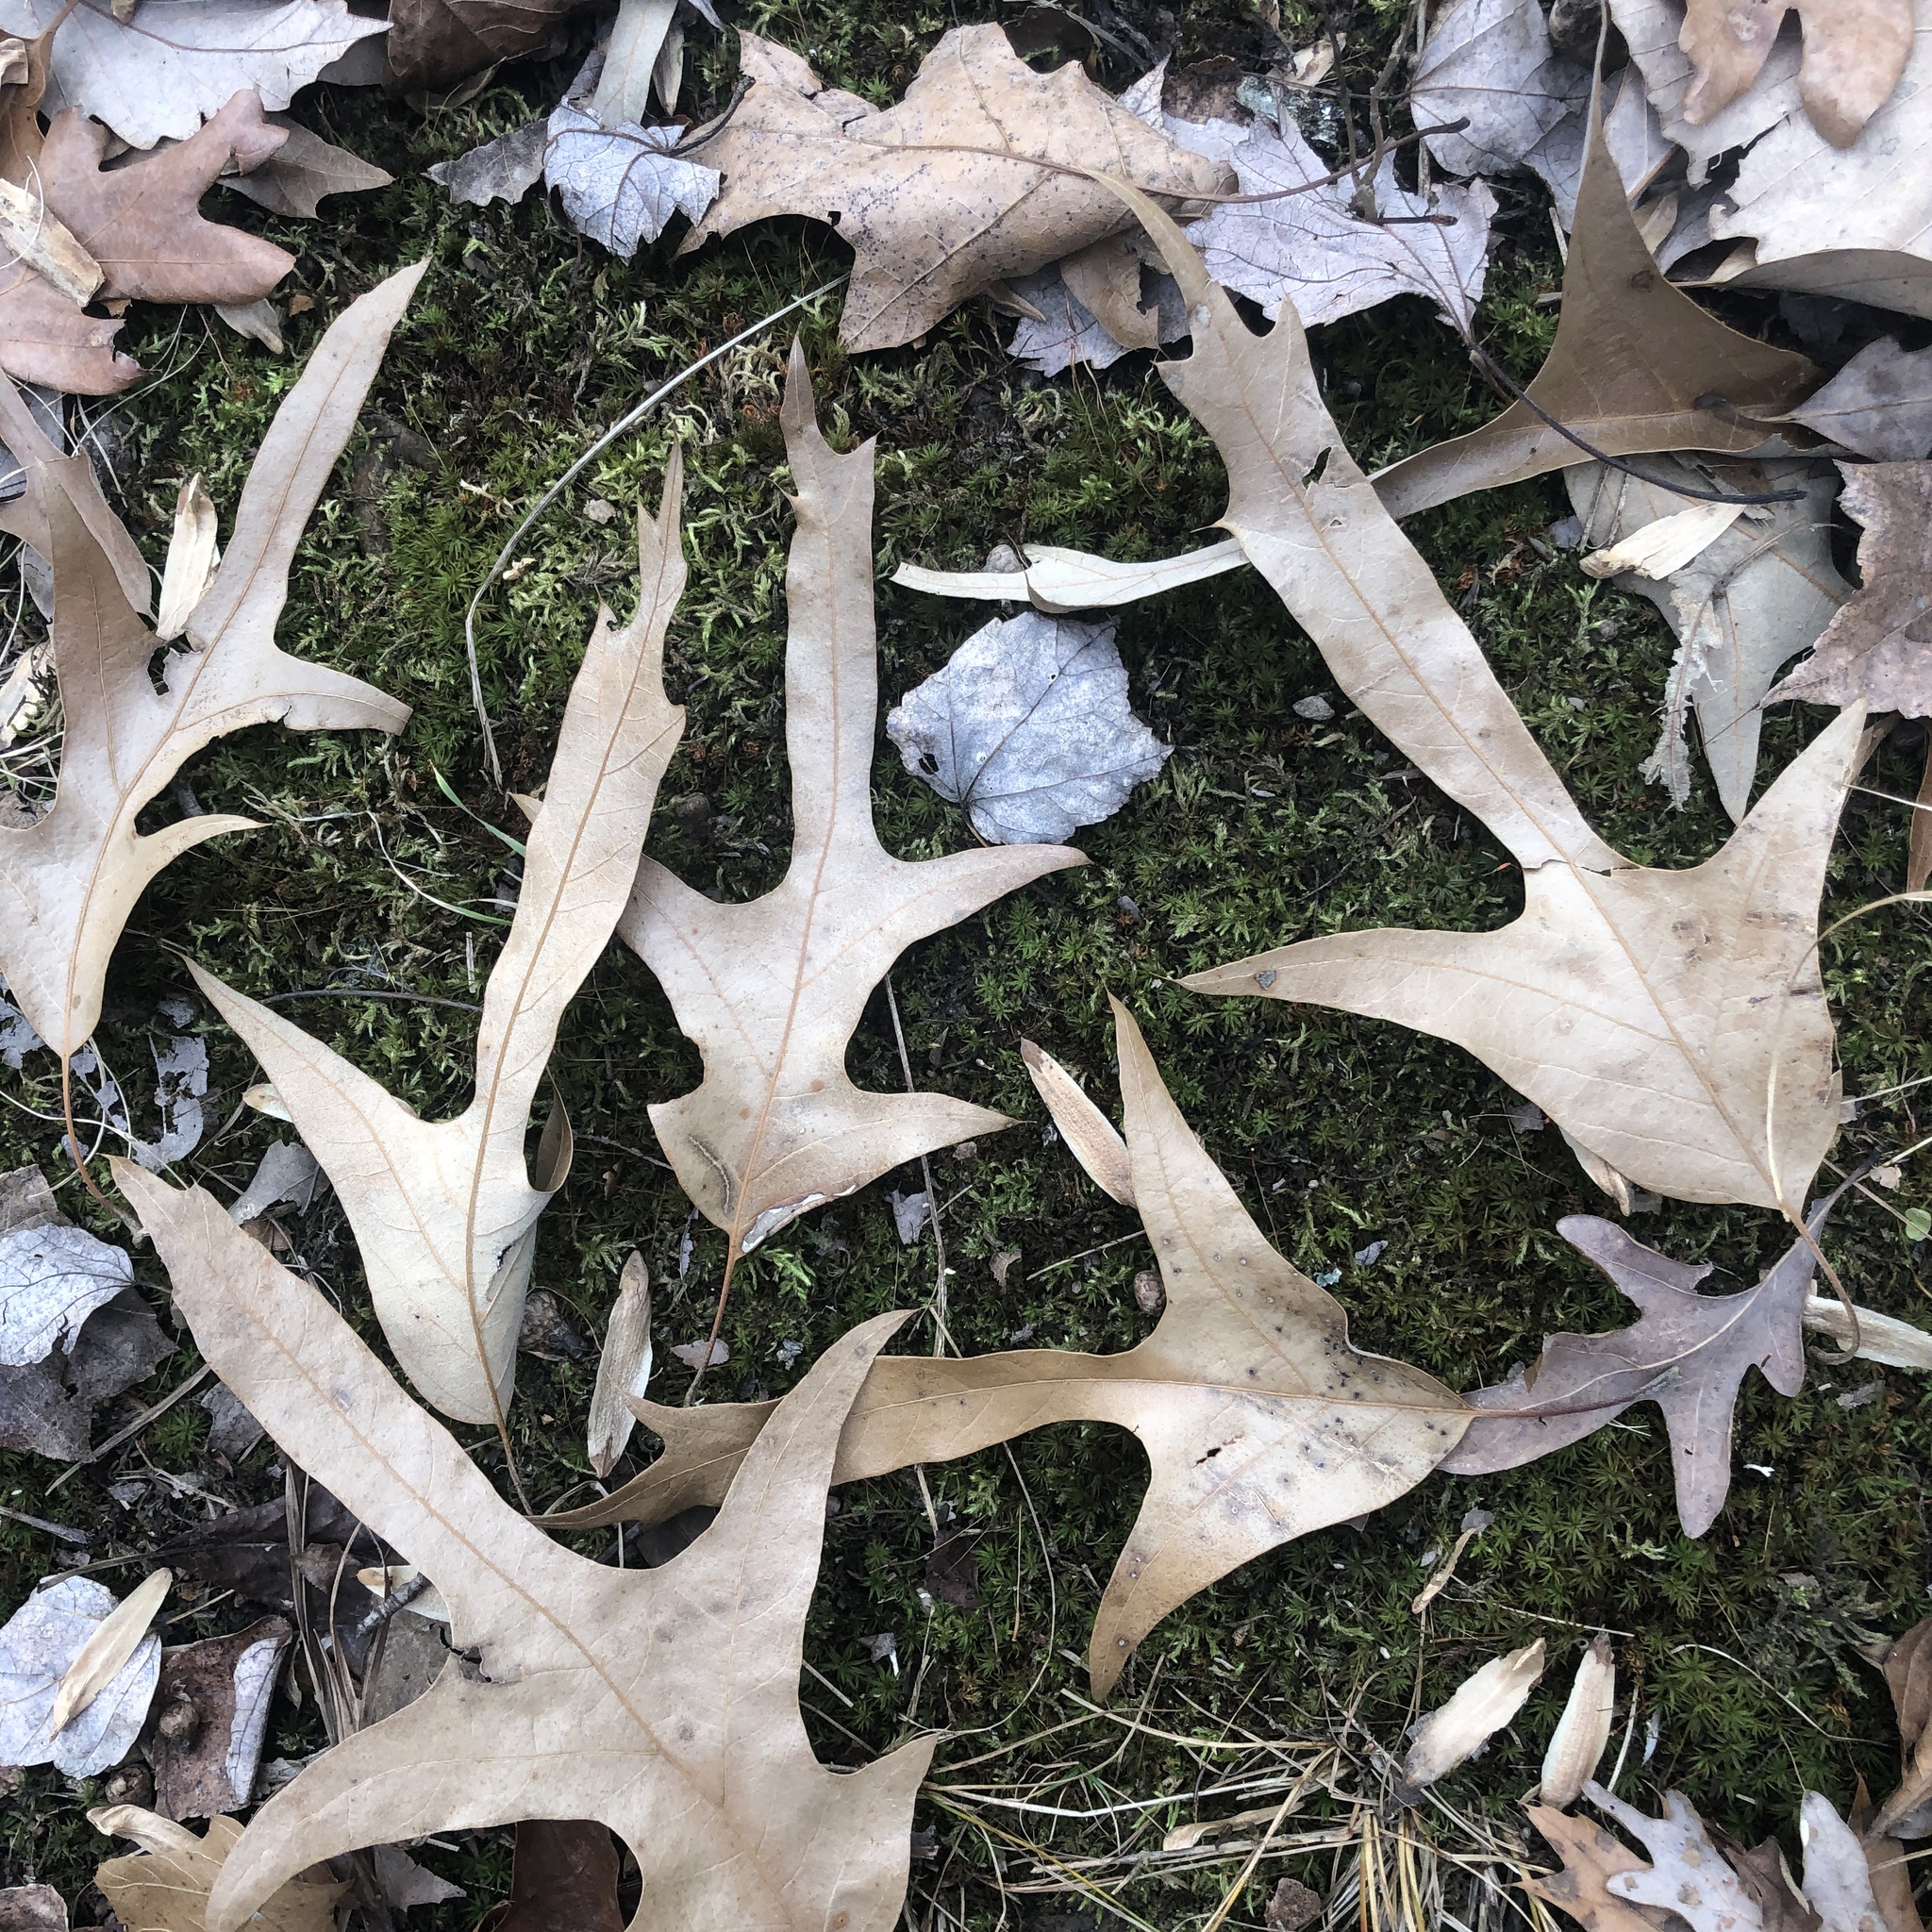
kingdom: Plantae
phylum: Tracheophyta
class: Magnoliopsida
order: Fagales
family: Fagaceae
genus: Quercus
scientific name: Quercus falcata
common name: Southern red oak
